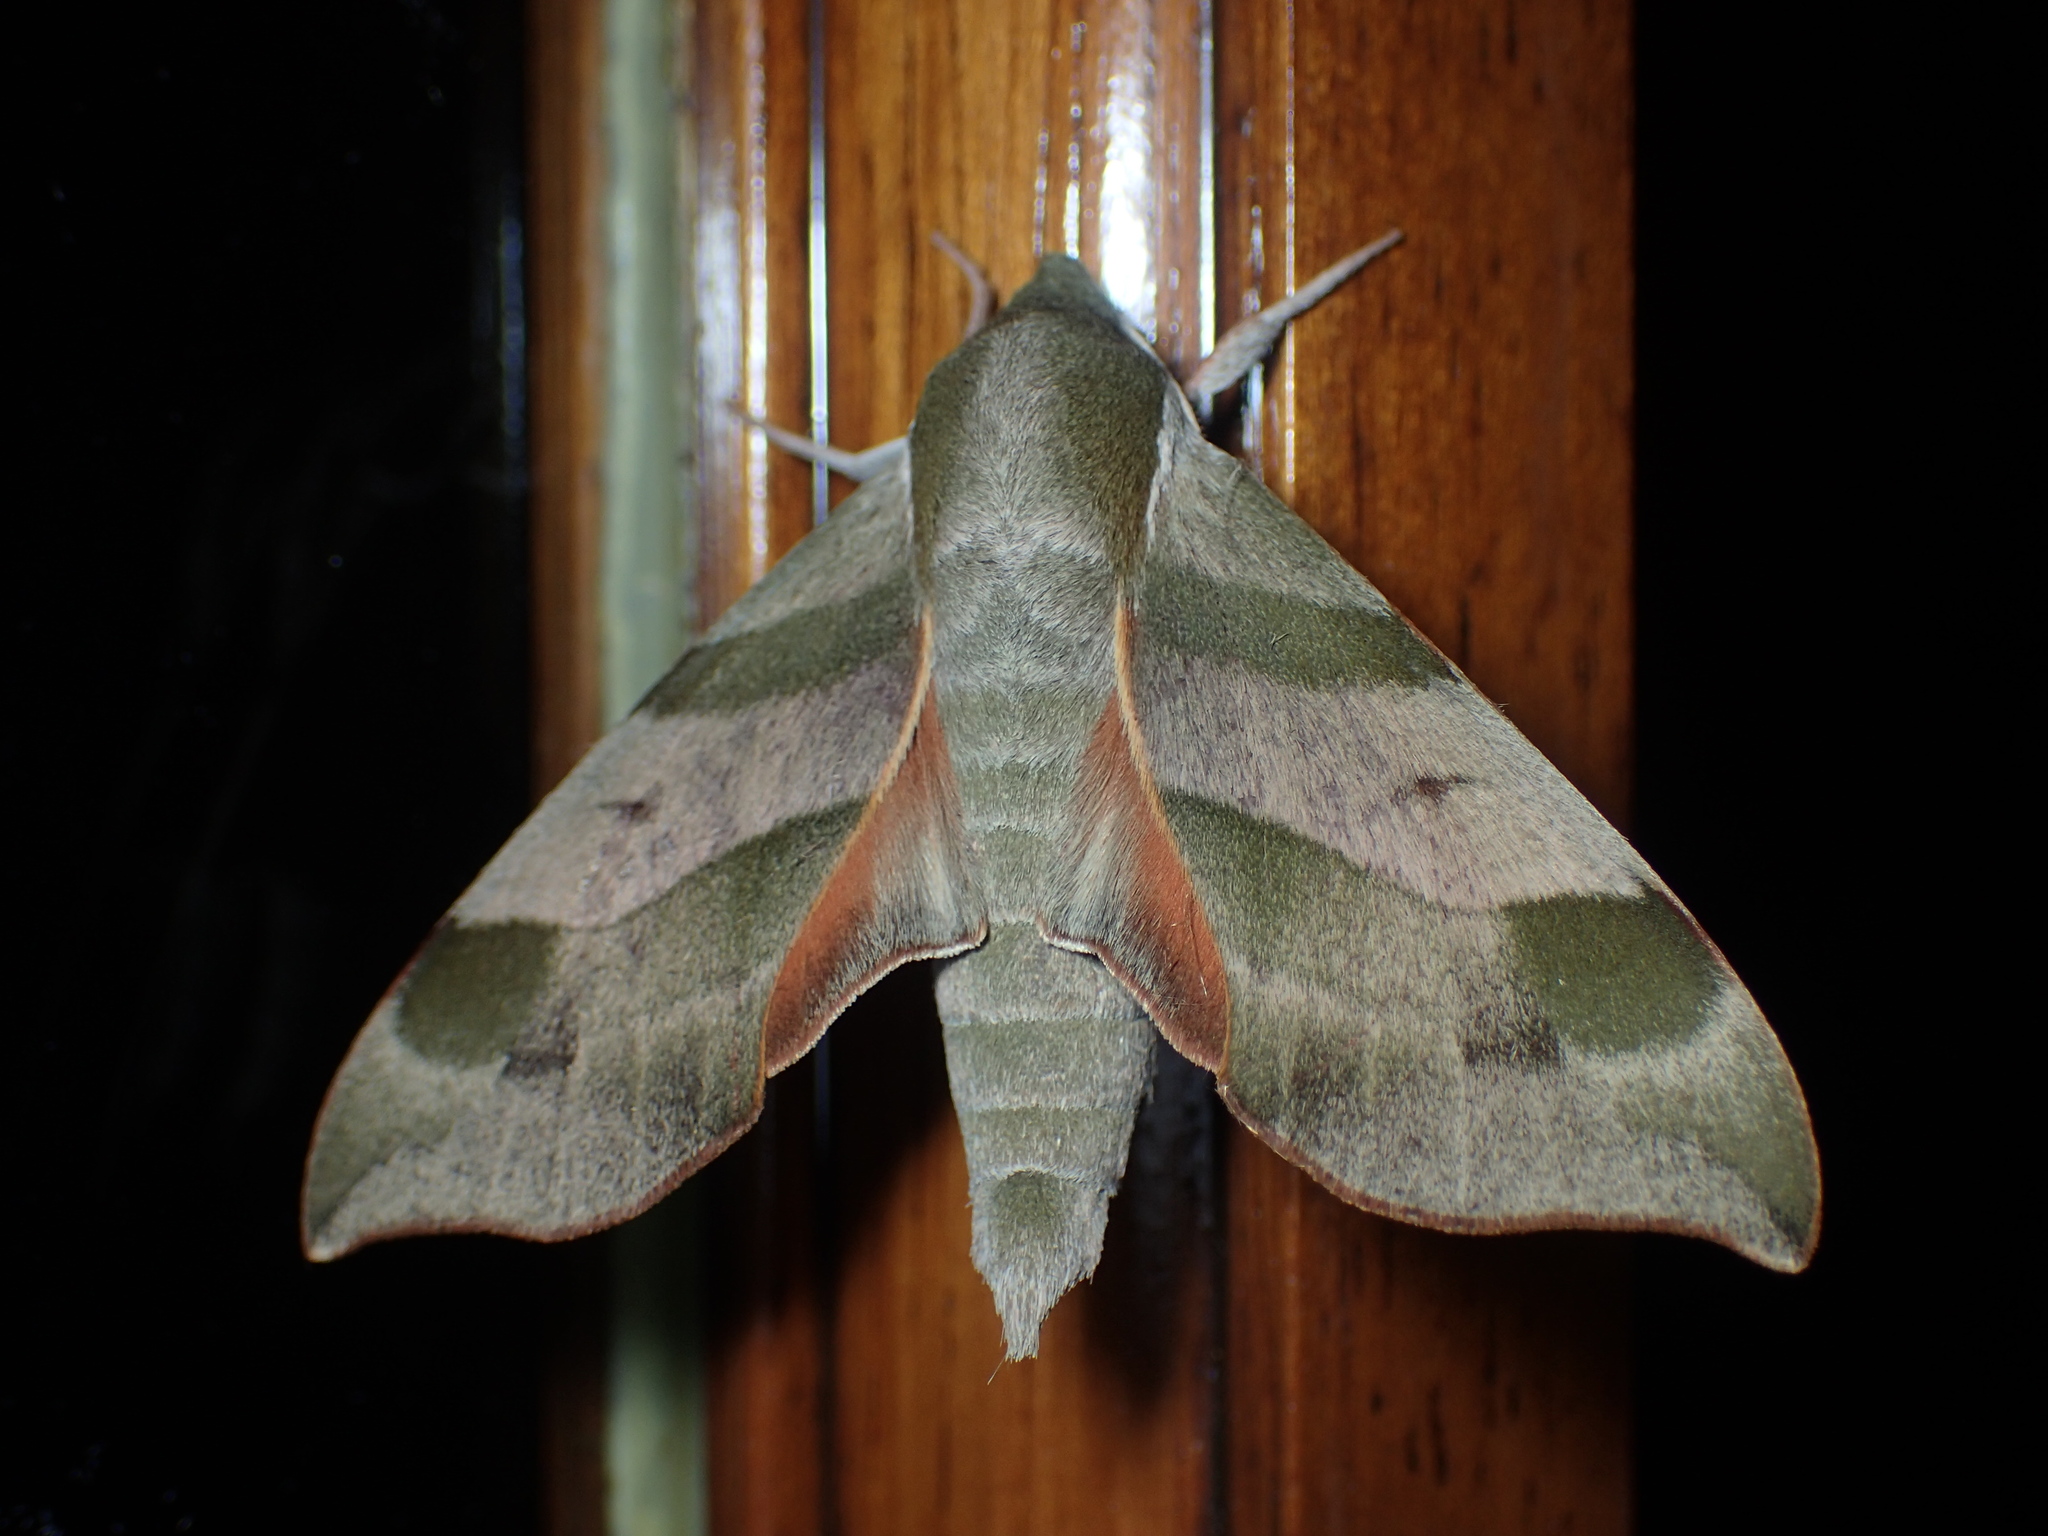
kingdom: Animalia
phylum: Arthropoda
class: Insecta
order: Lepidoptera
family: Sphingidae
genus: Darapsa
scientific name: Darapsa myron
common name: Hog sphinx
